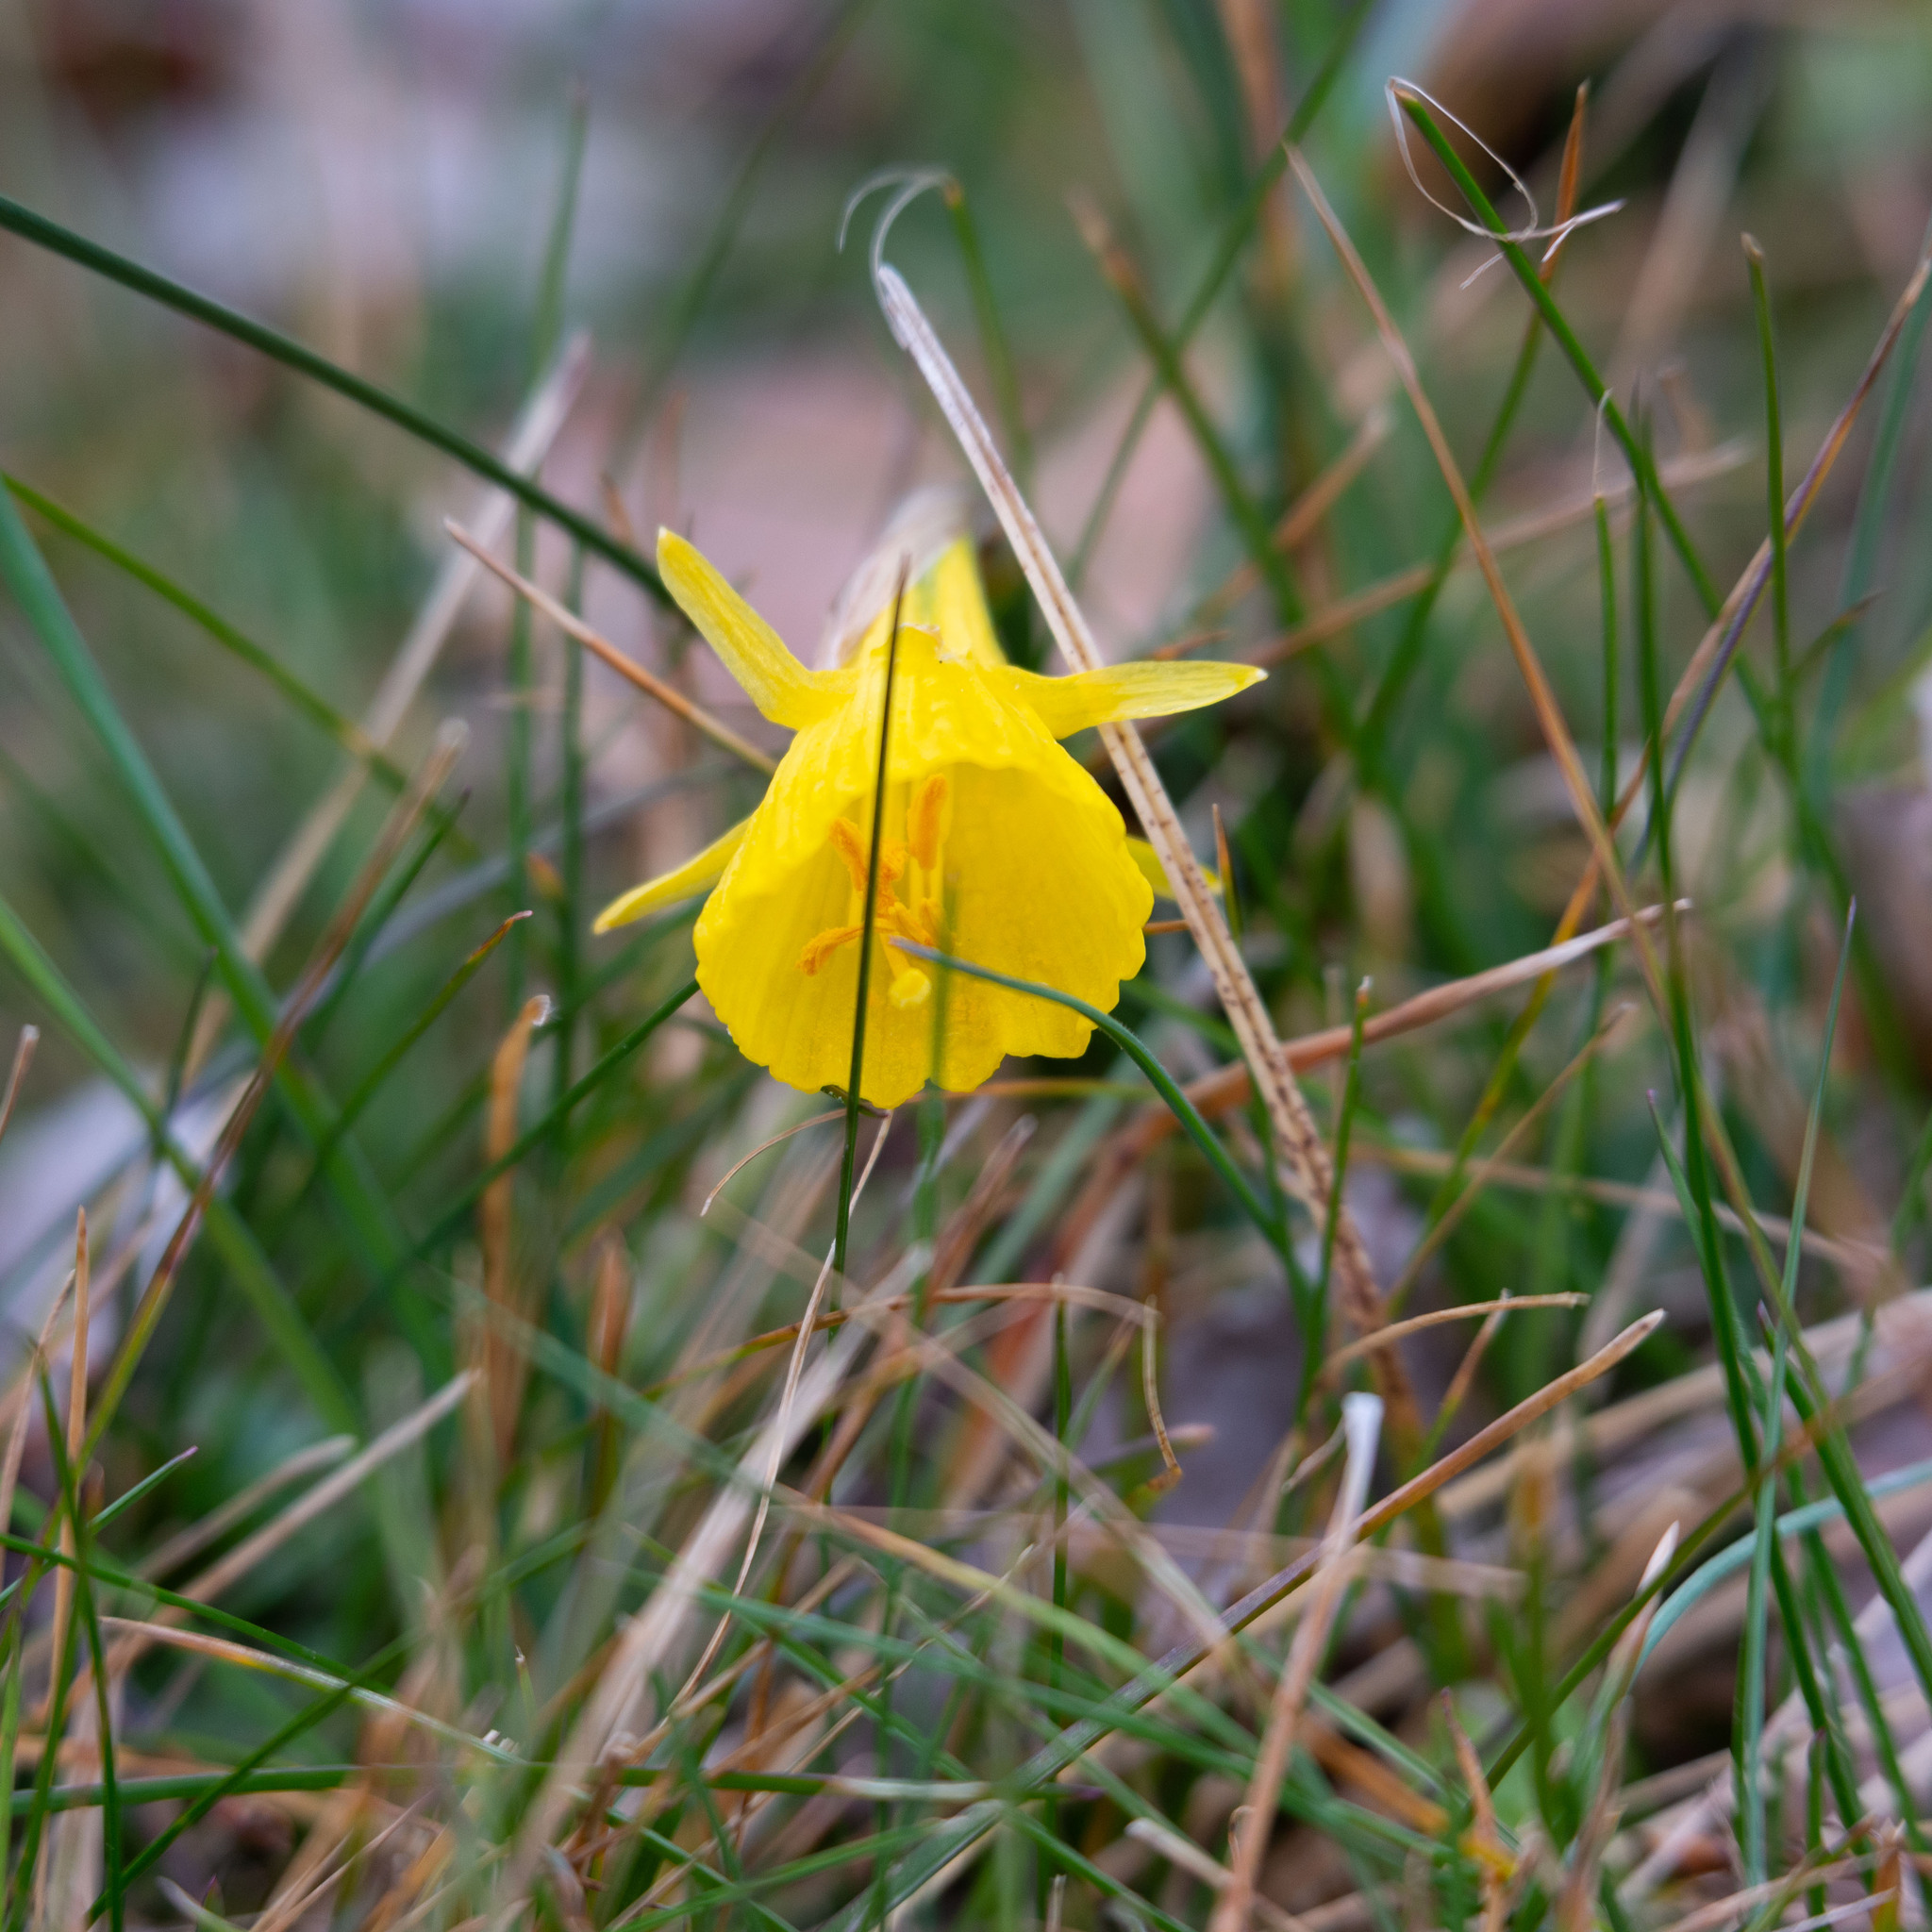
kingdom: Plantae
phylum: Tracheophyta
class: Liliopsida
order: Asparagales
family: Amaryllidaceae
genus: Narcissus
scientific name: Narcissus bulbocodium
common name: Hoop-petticoat daffodil
